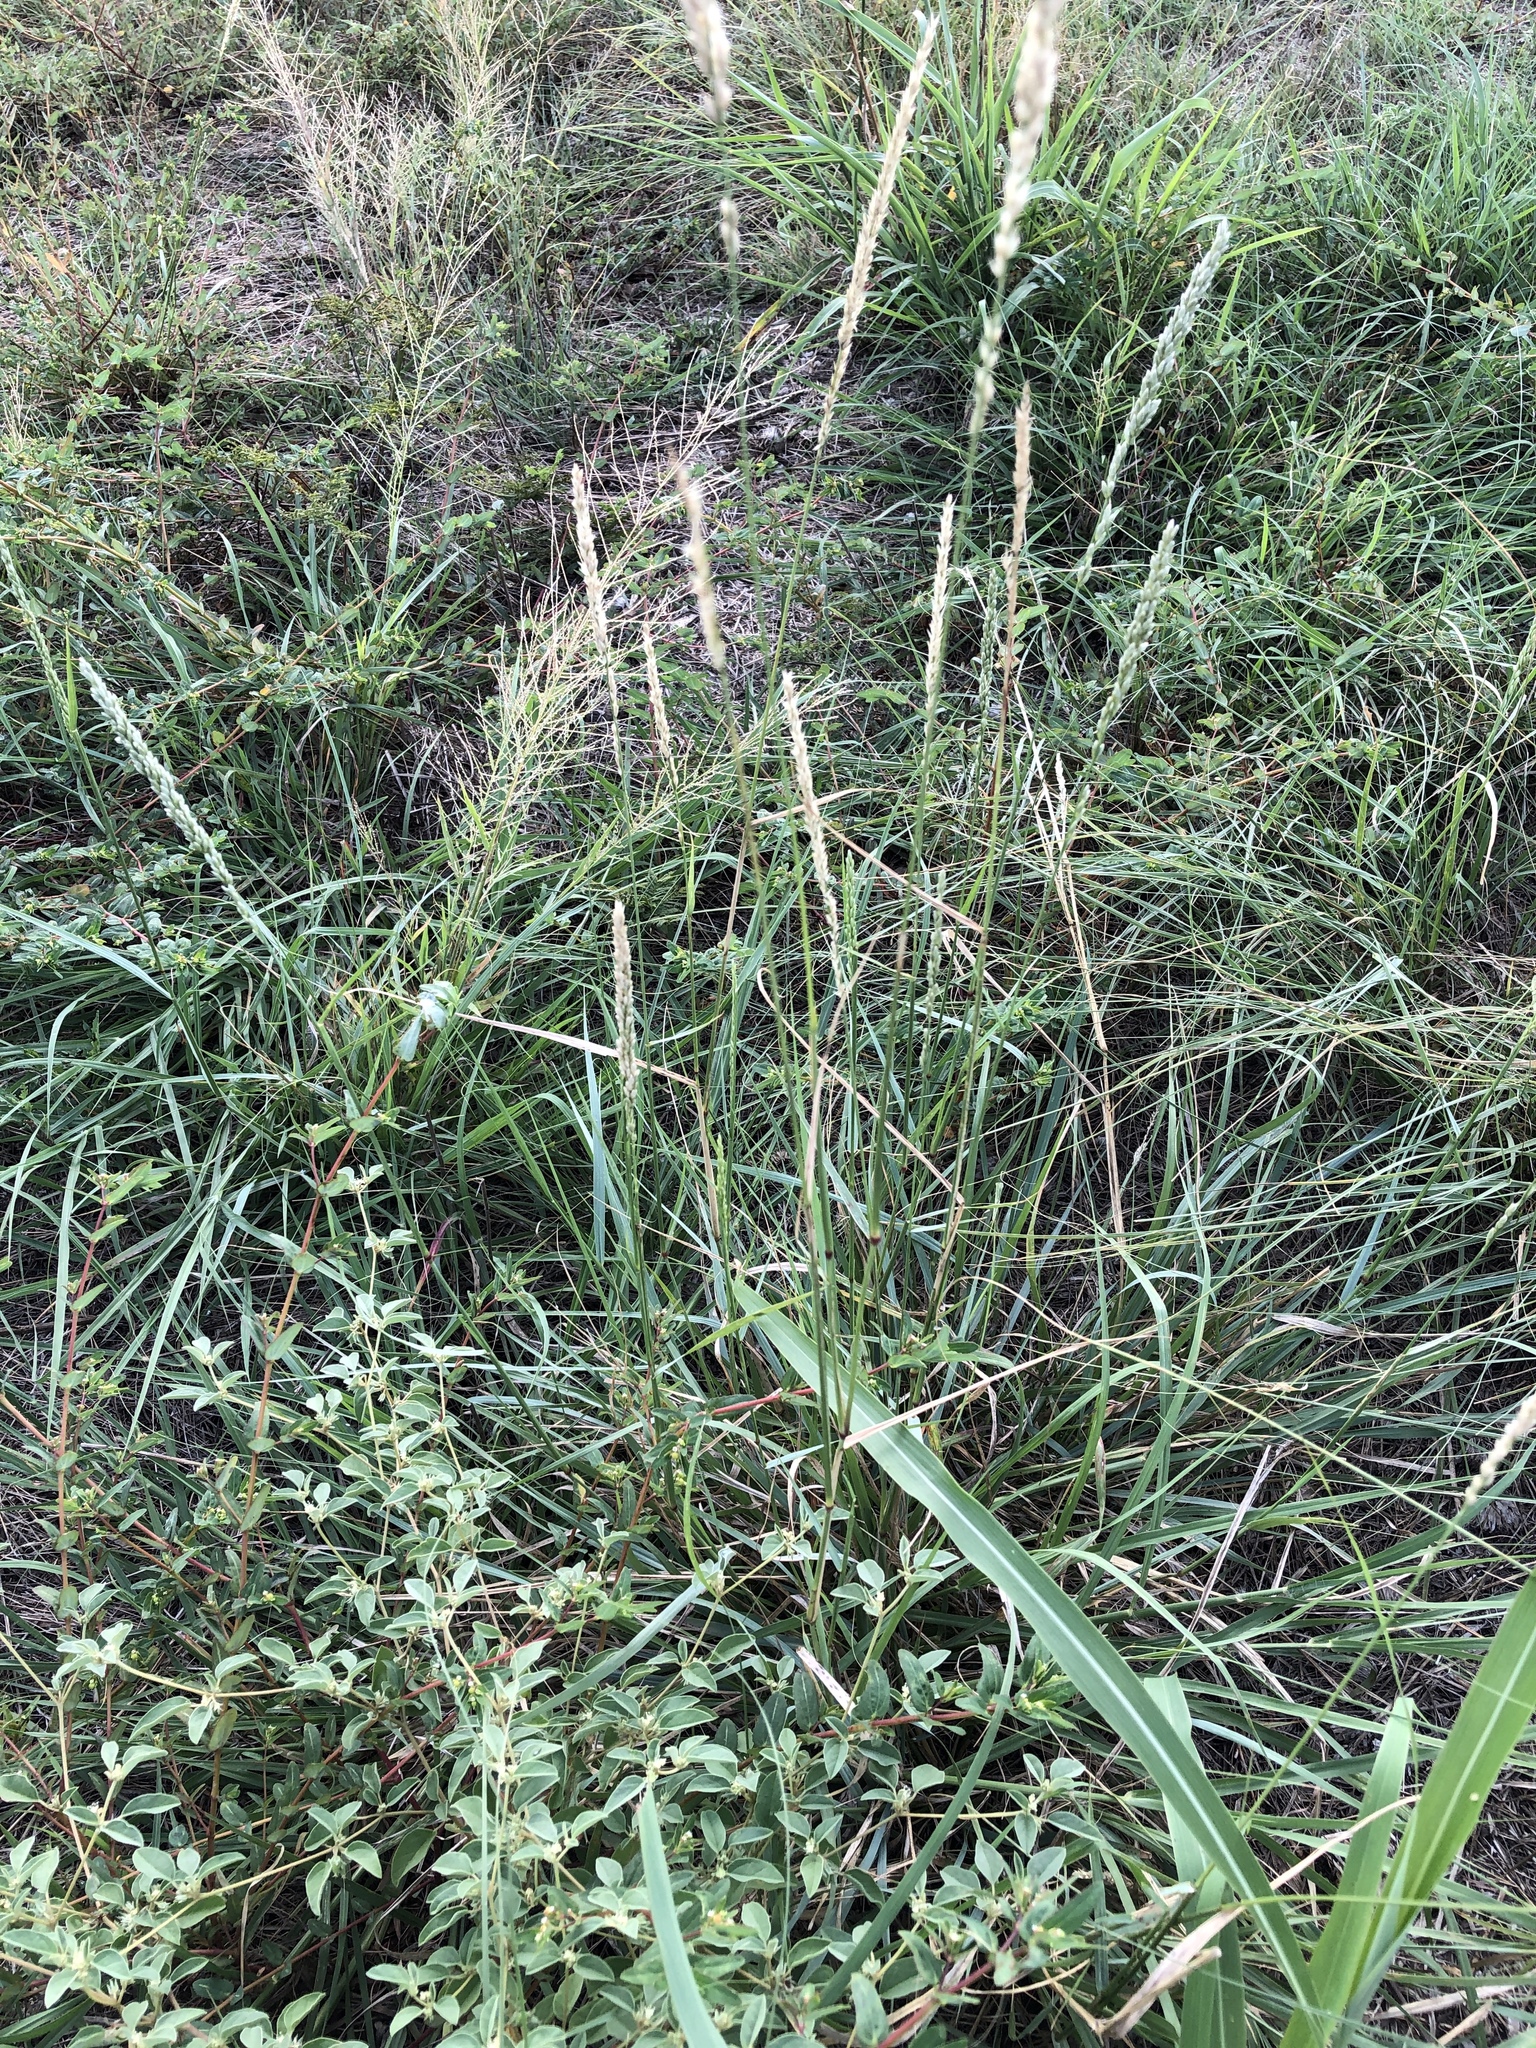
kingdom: Plantae
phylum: Tracheophyta
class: Liliopsida
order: Poales
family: Poaceae
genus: Tridens
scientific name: Tridens albescens
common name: White tridens
